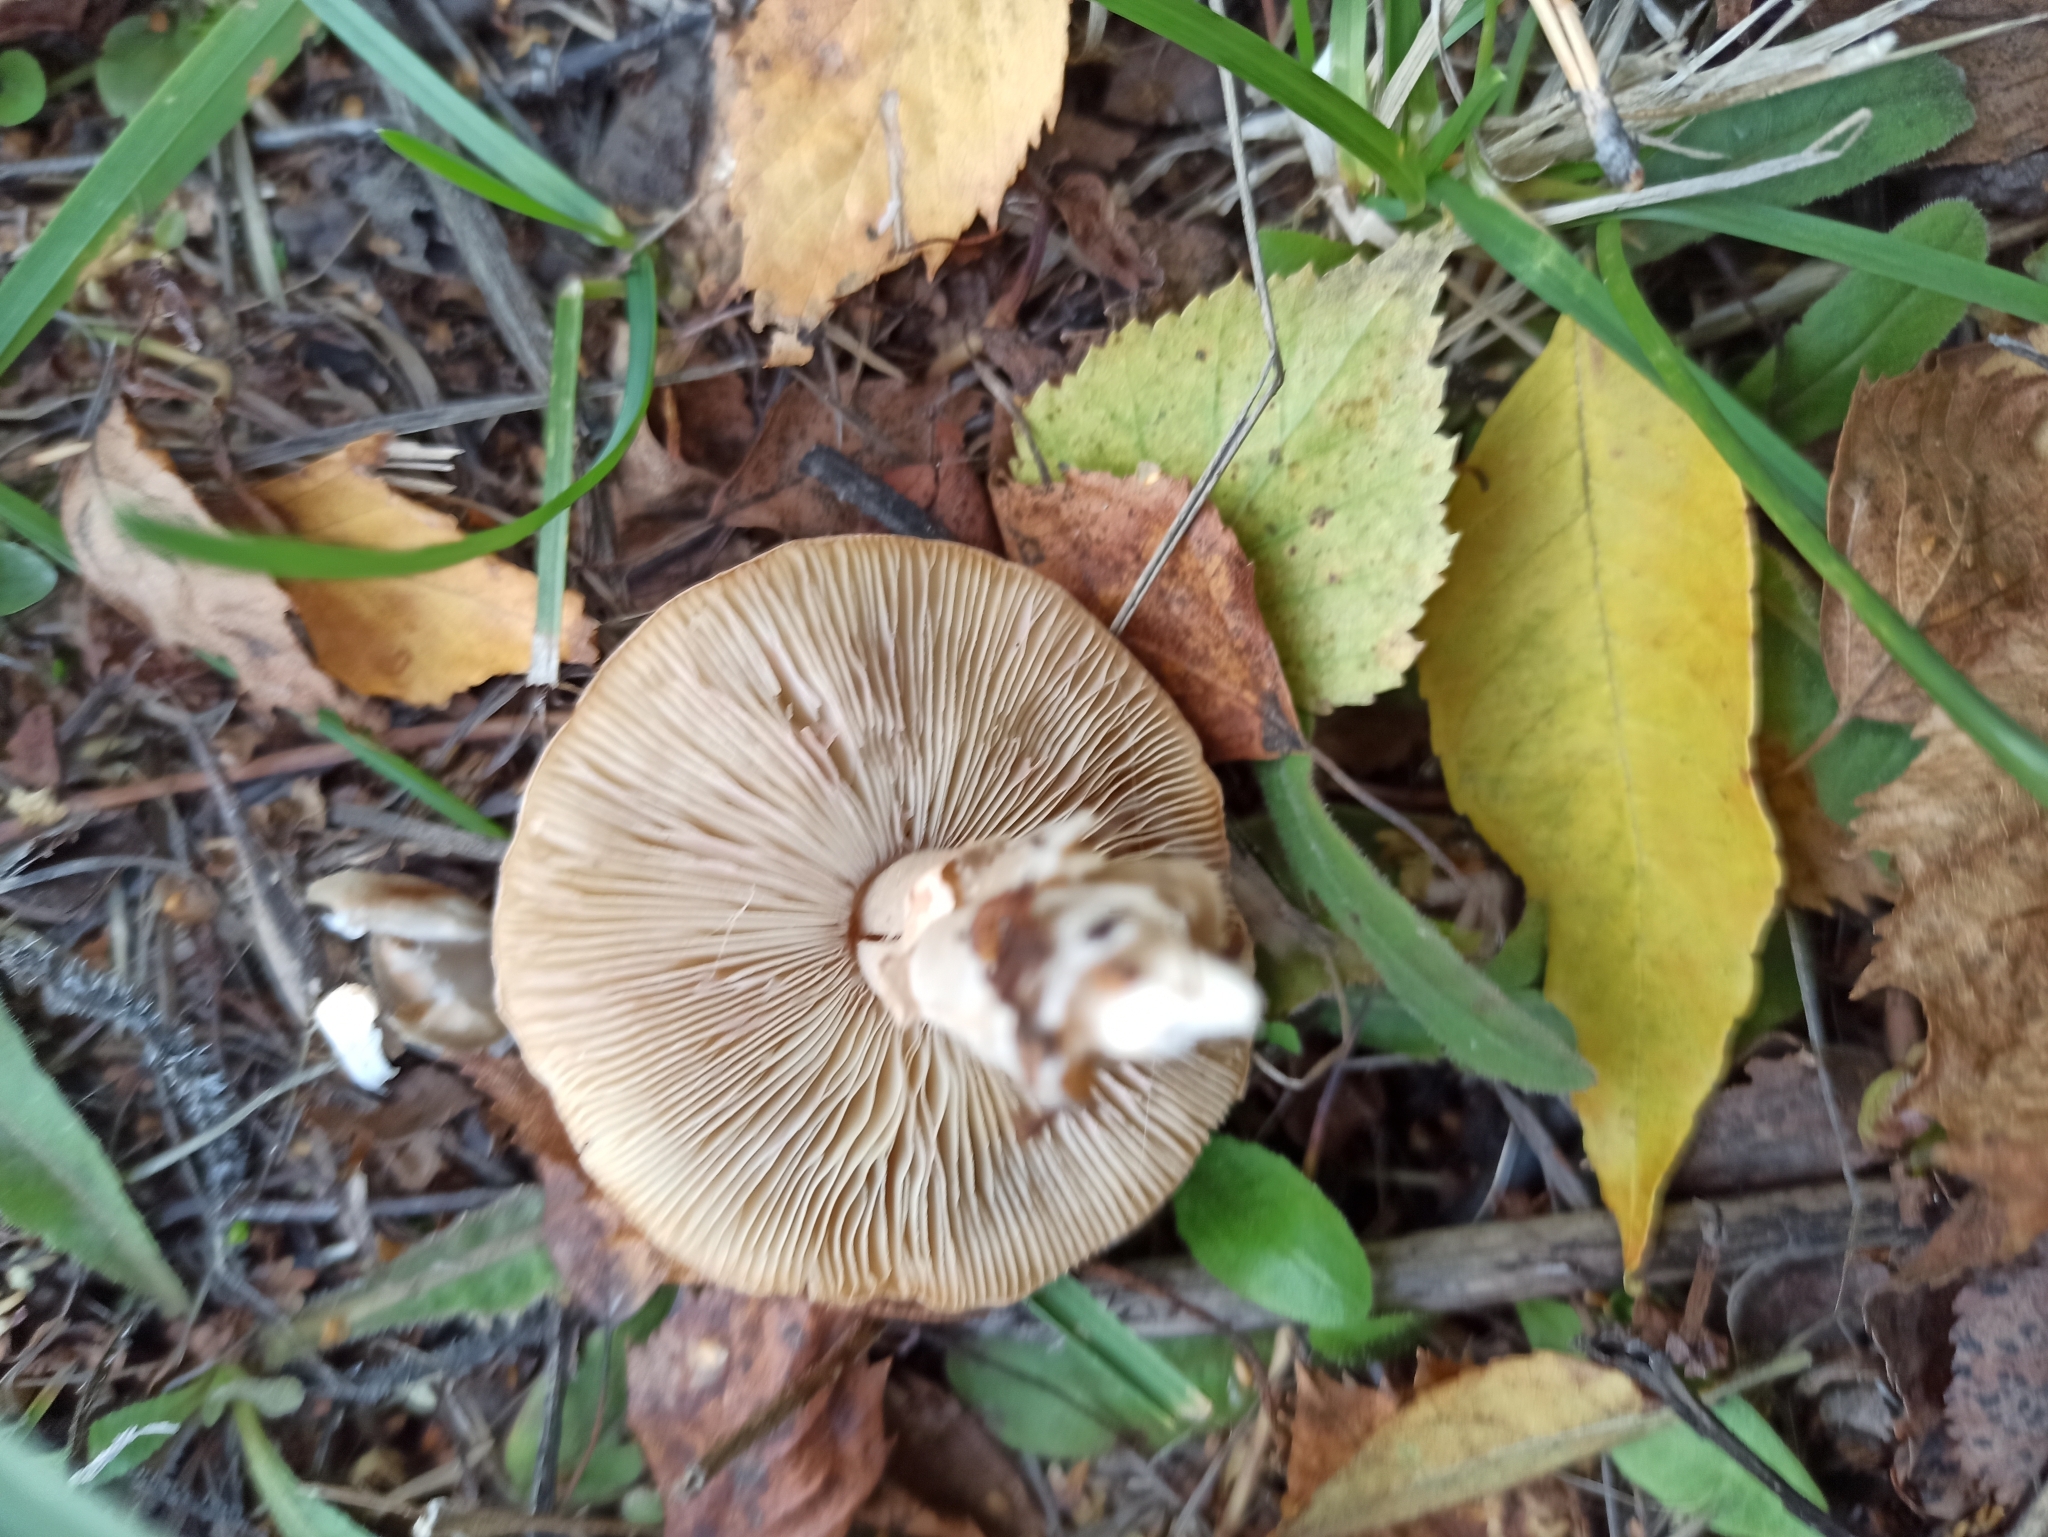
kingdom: Fungi
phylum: Basidiomycota
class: Agaricomycetes
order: Agaricales
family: Agaricaceae
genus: Leucoagaricus
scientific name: Leucoagaricus leucothites
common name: White dapperling
